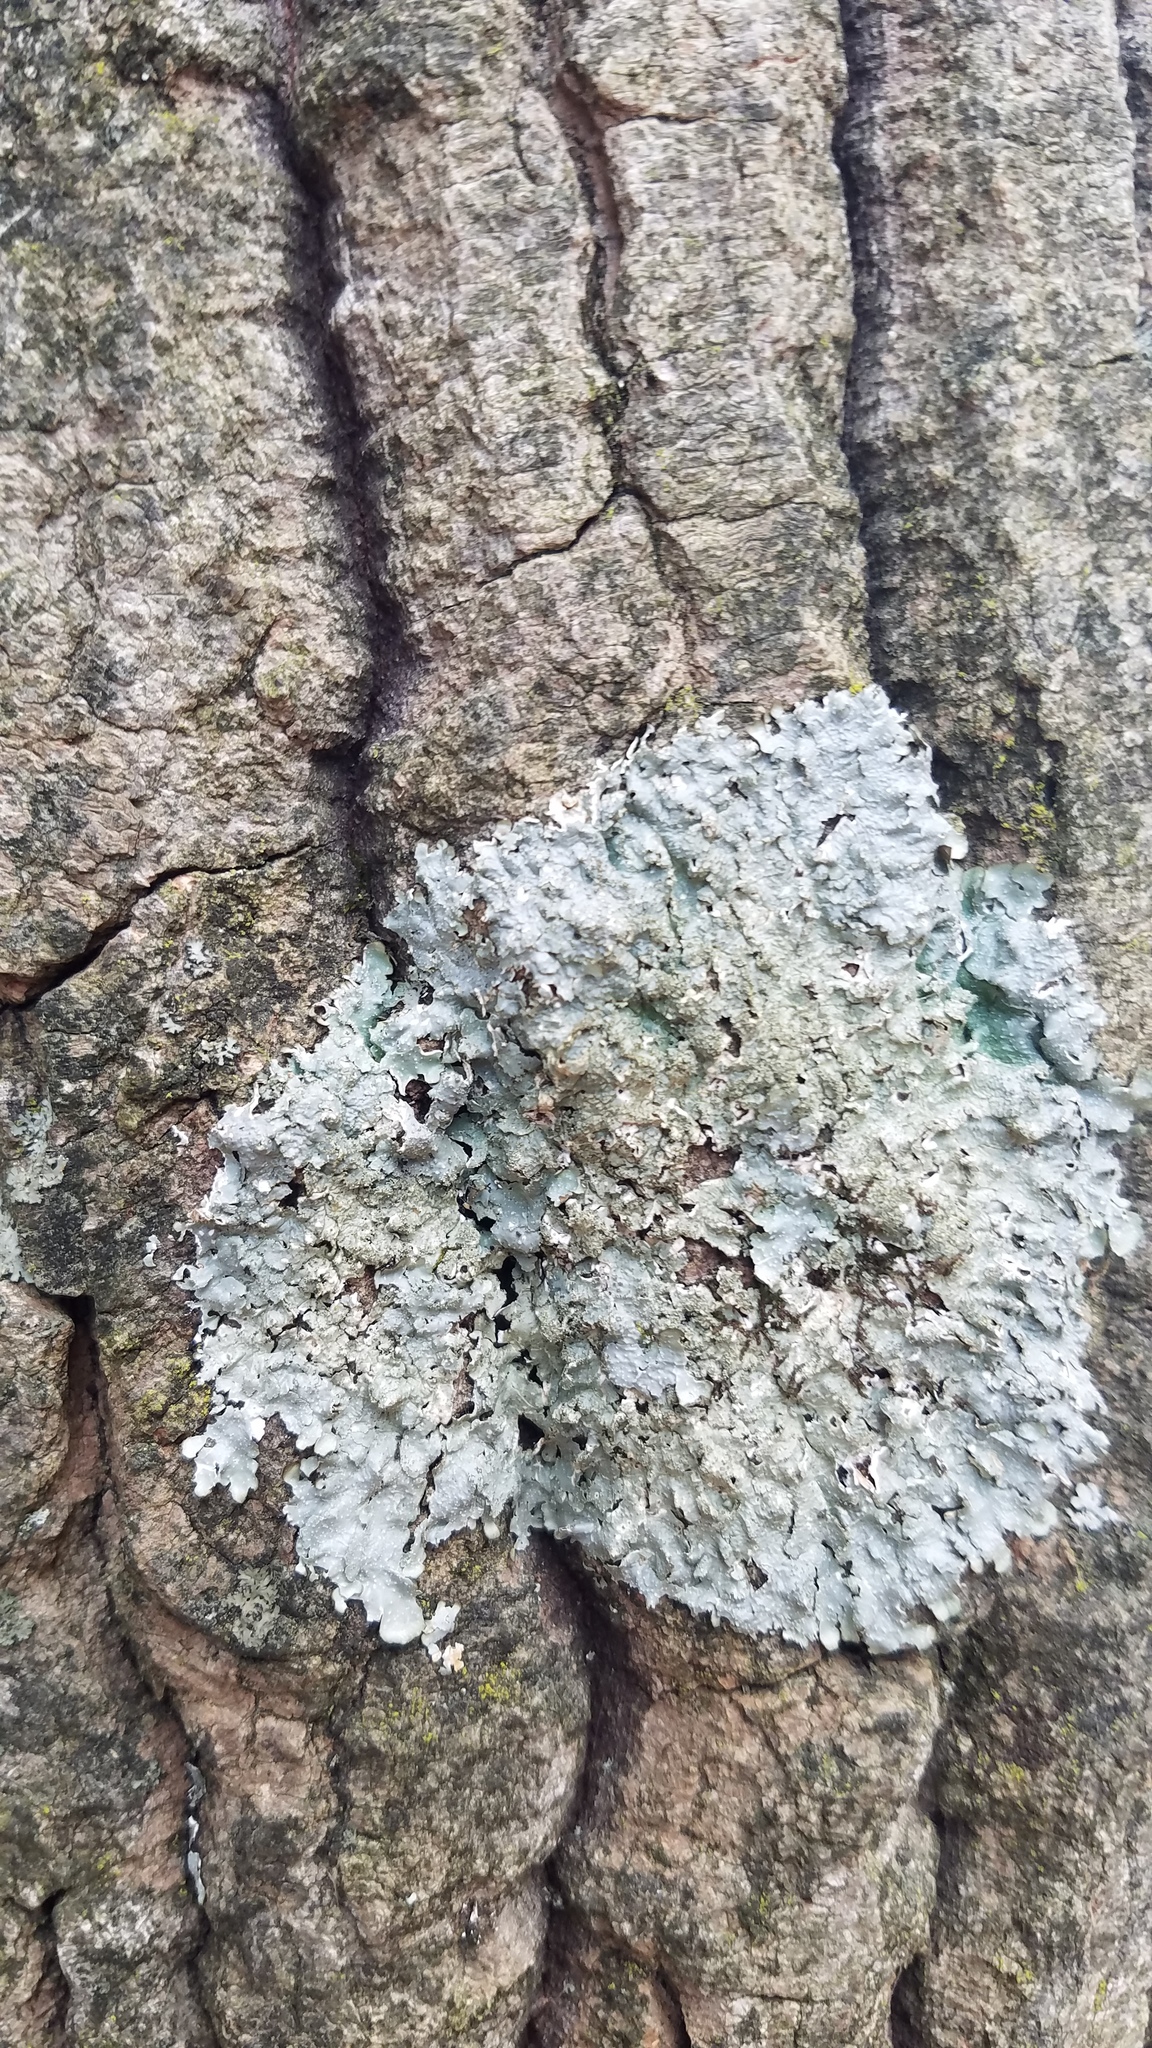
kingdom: Fungi
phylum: Ascomycota
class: Lecanoromycetes
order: Lecanorales
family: Parmeliaceae
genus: Punctelia
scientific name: Punctelia rudecta
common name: Rough speckled shield lichen
